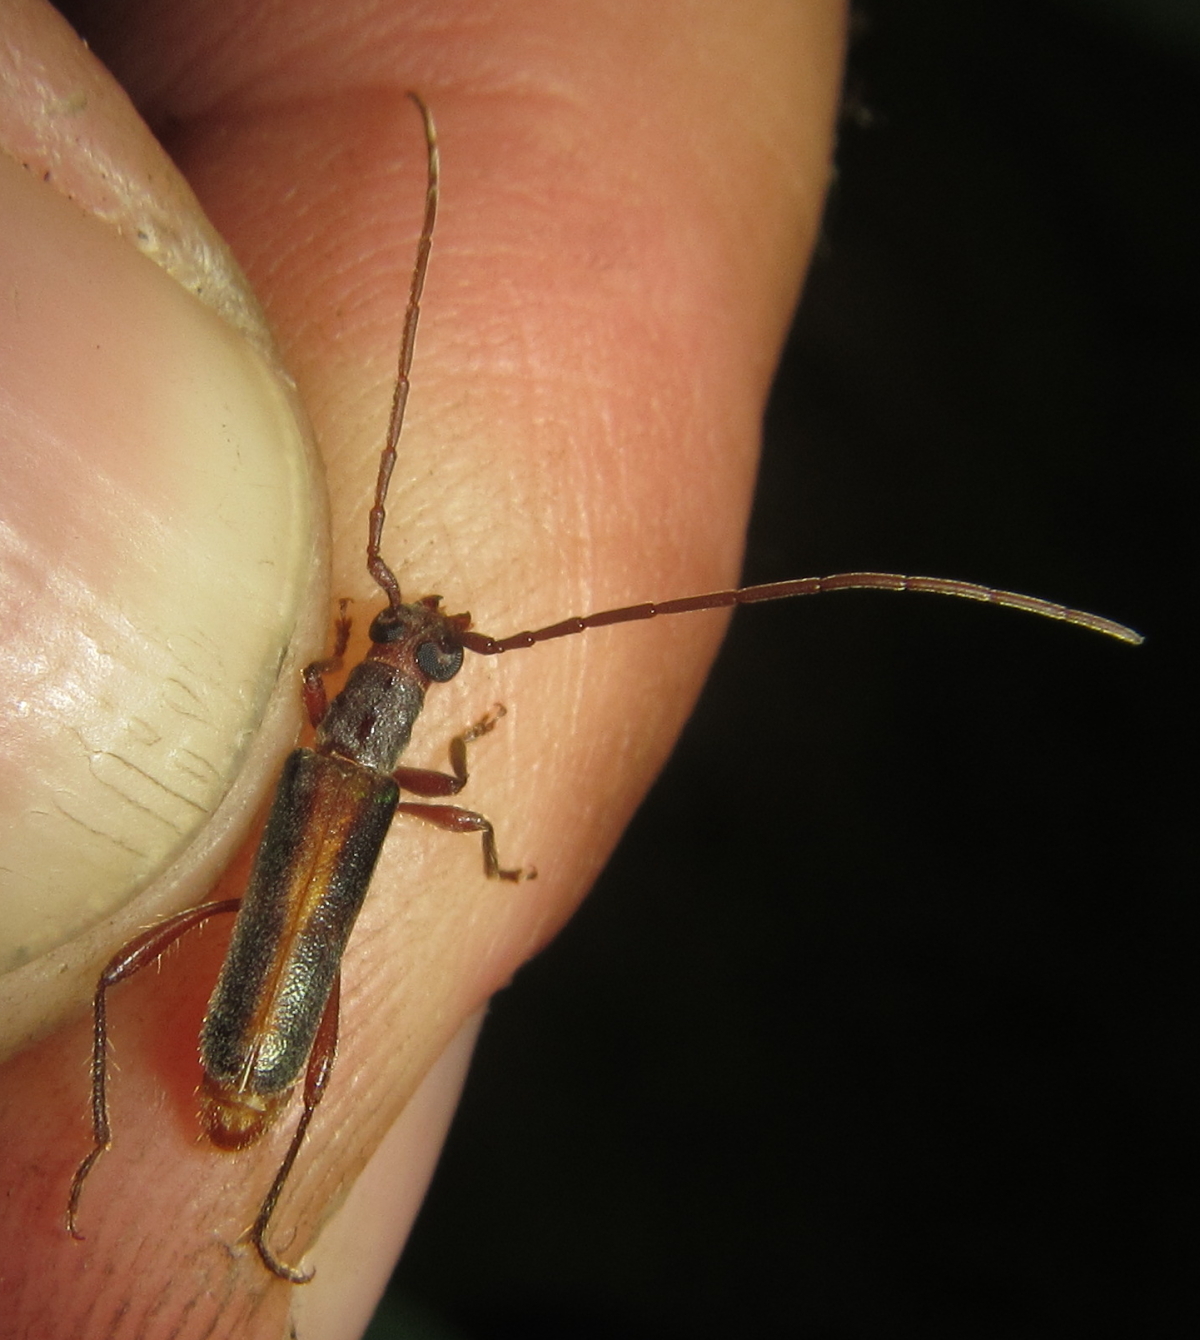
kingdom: Animalia
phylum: Arthropoda
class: Insecta
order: Coleoptera
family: Cerambycidae
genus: Ossibia
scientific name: Ossibia fuscata
